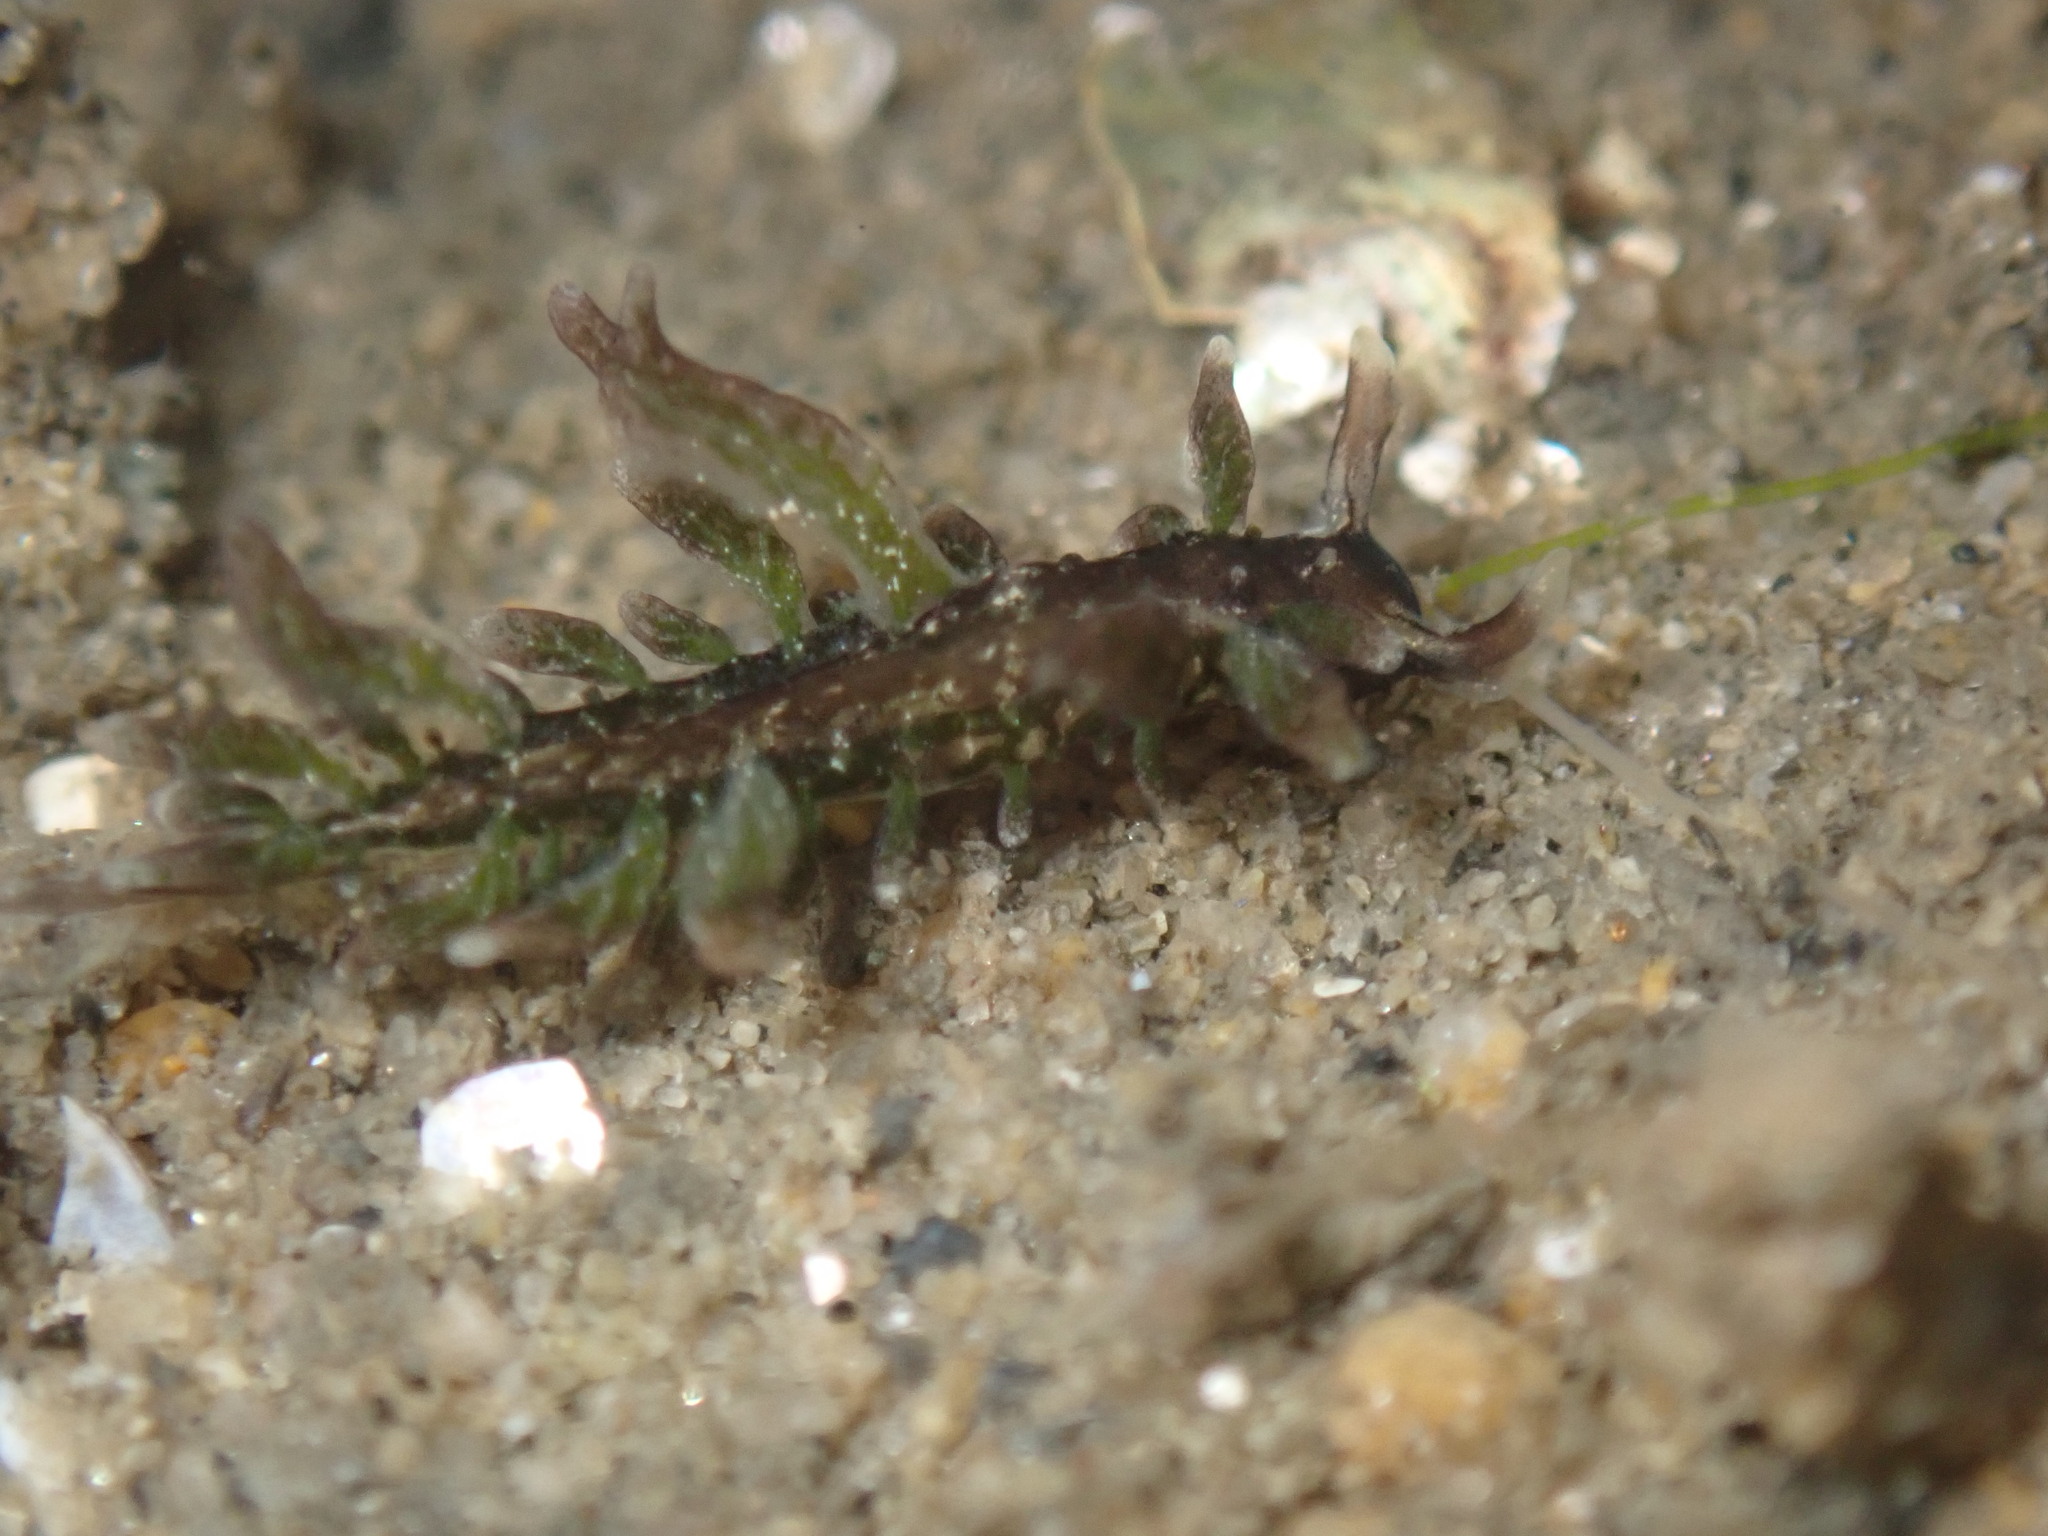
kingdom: Animalia
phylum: Mollusca
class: Gastropoda
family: Hermaeidae
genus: Aplysiopsis
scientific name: Aplysiopsis enteromorphae
